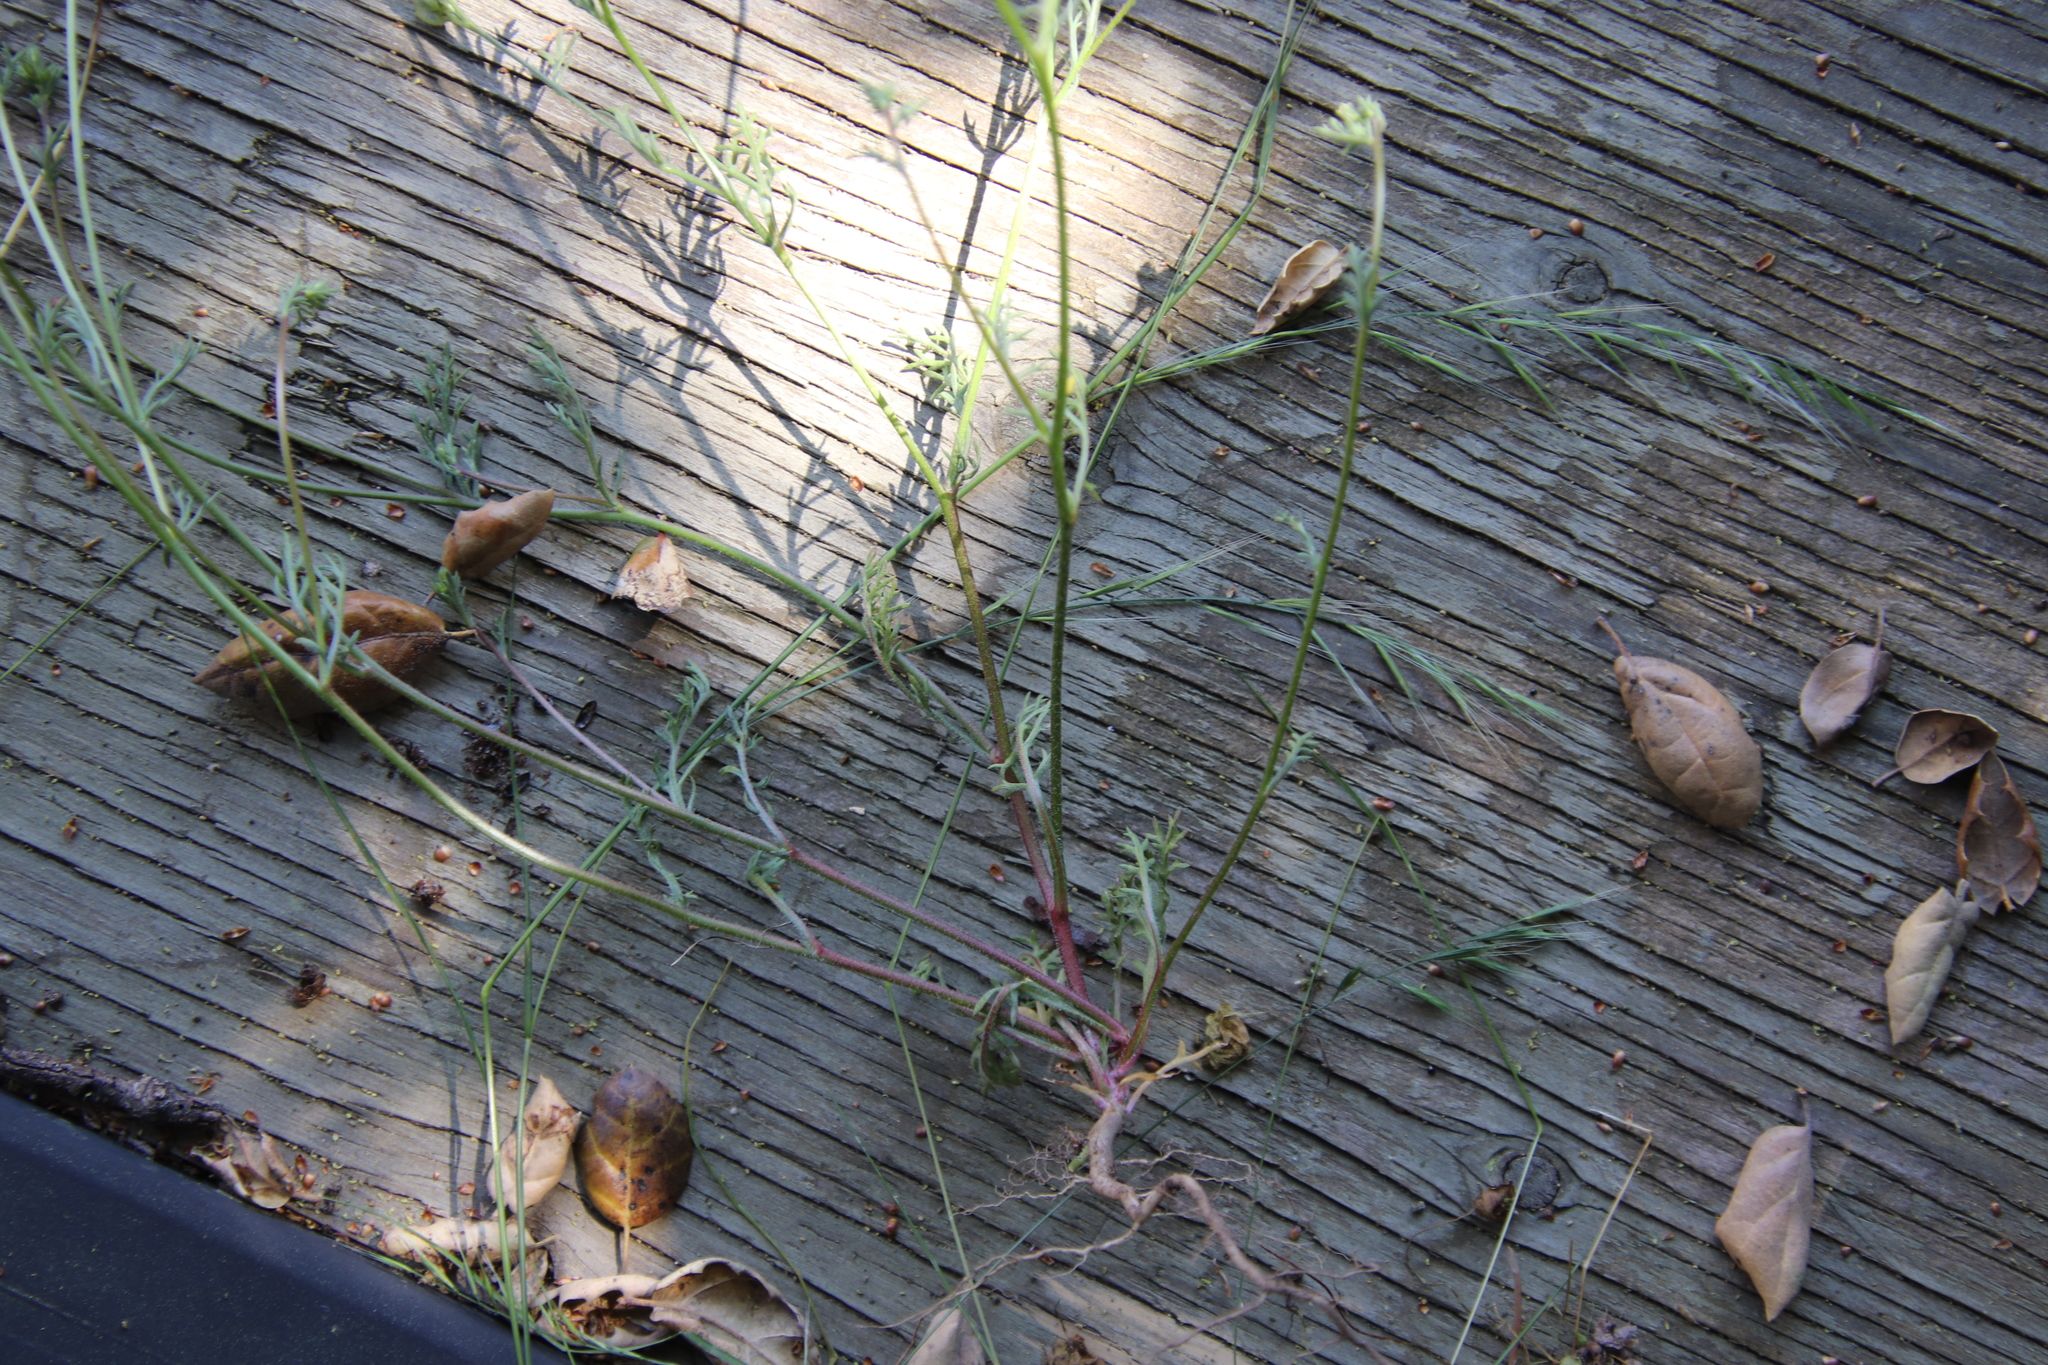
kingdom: Plantae
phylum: Tracheophyta
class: Magnoliopsida
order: Ericales
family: Polemoniaceae
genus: Gilia
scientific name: Gilia angelensis
